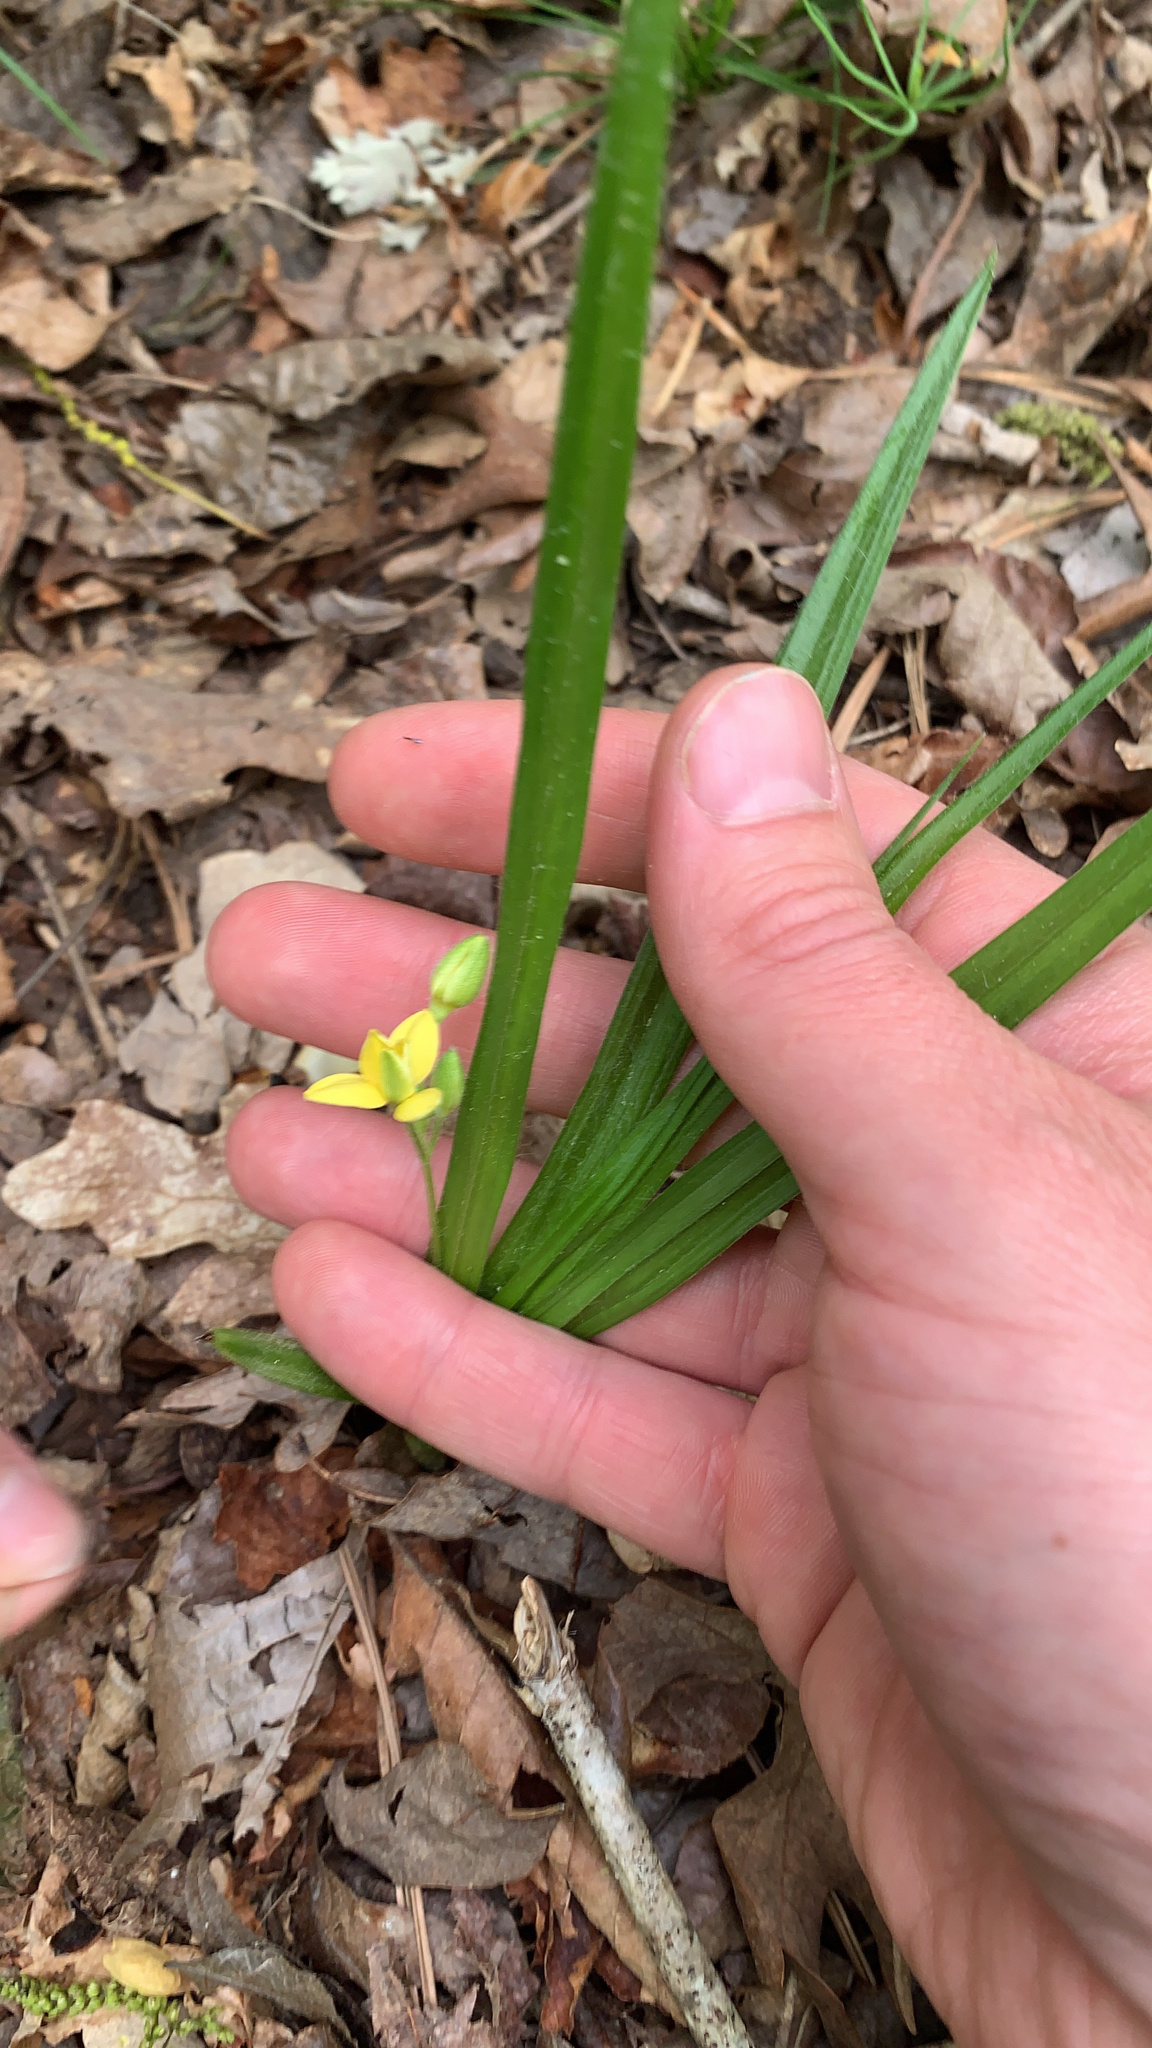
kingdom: Plantae
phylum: Tracheophyta
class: Liliopsida
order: Asparagales
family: Hypoxidaceae
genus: Hypoxis
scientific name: Hypoxis hirsuta
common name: Common goldstar
